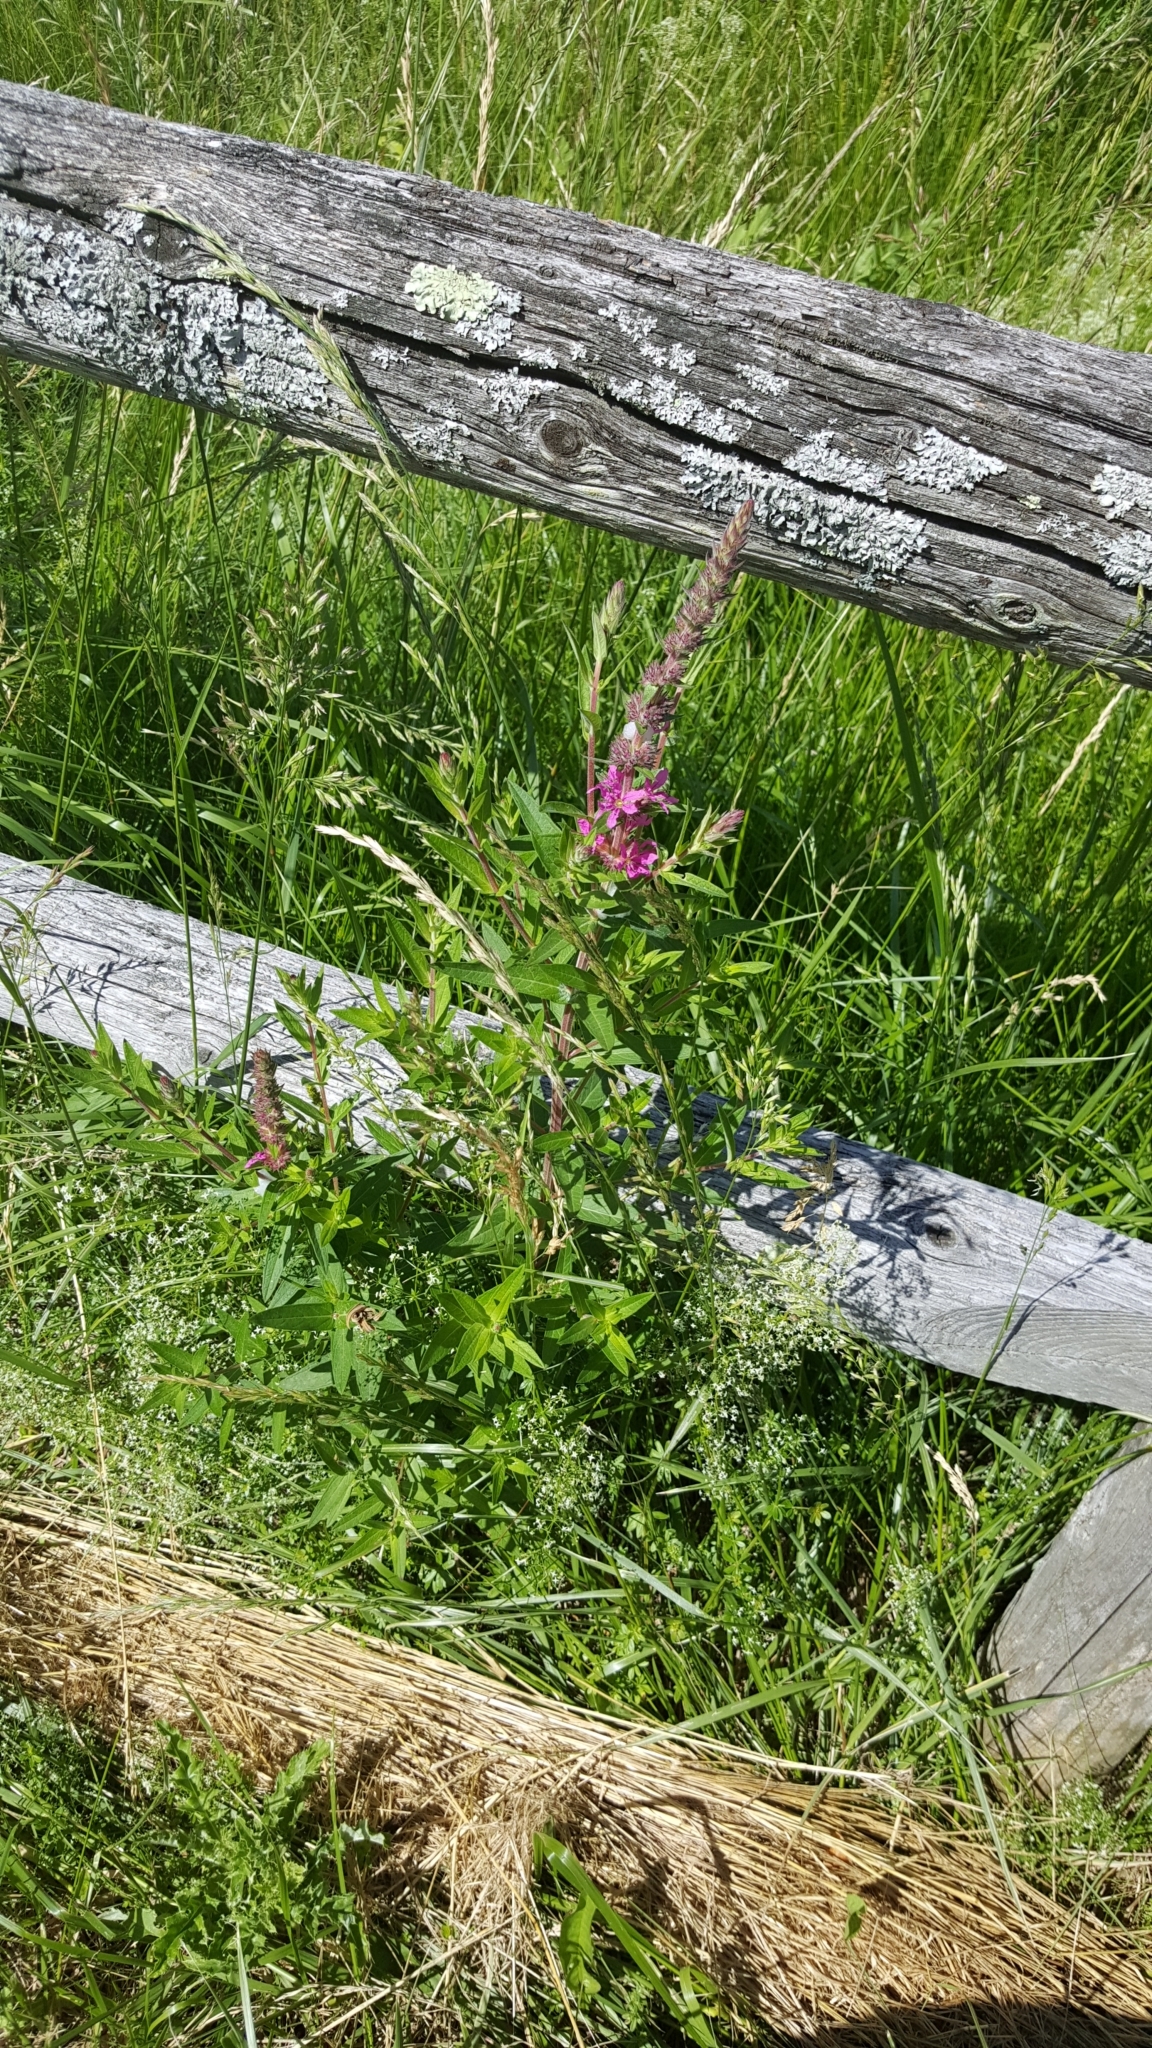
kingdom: Plantae
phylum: Tracheophyta
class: Magnoliopsida
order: Myrtales
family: Lythraceae
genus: Lythrum
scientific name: Lythrum salicaria
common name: Purple loosestrife
